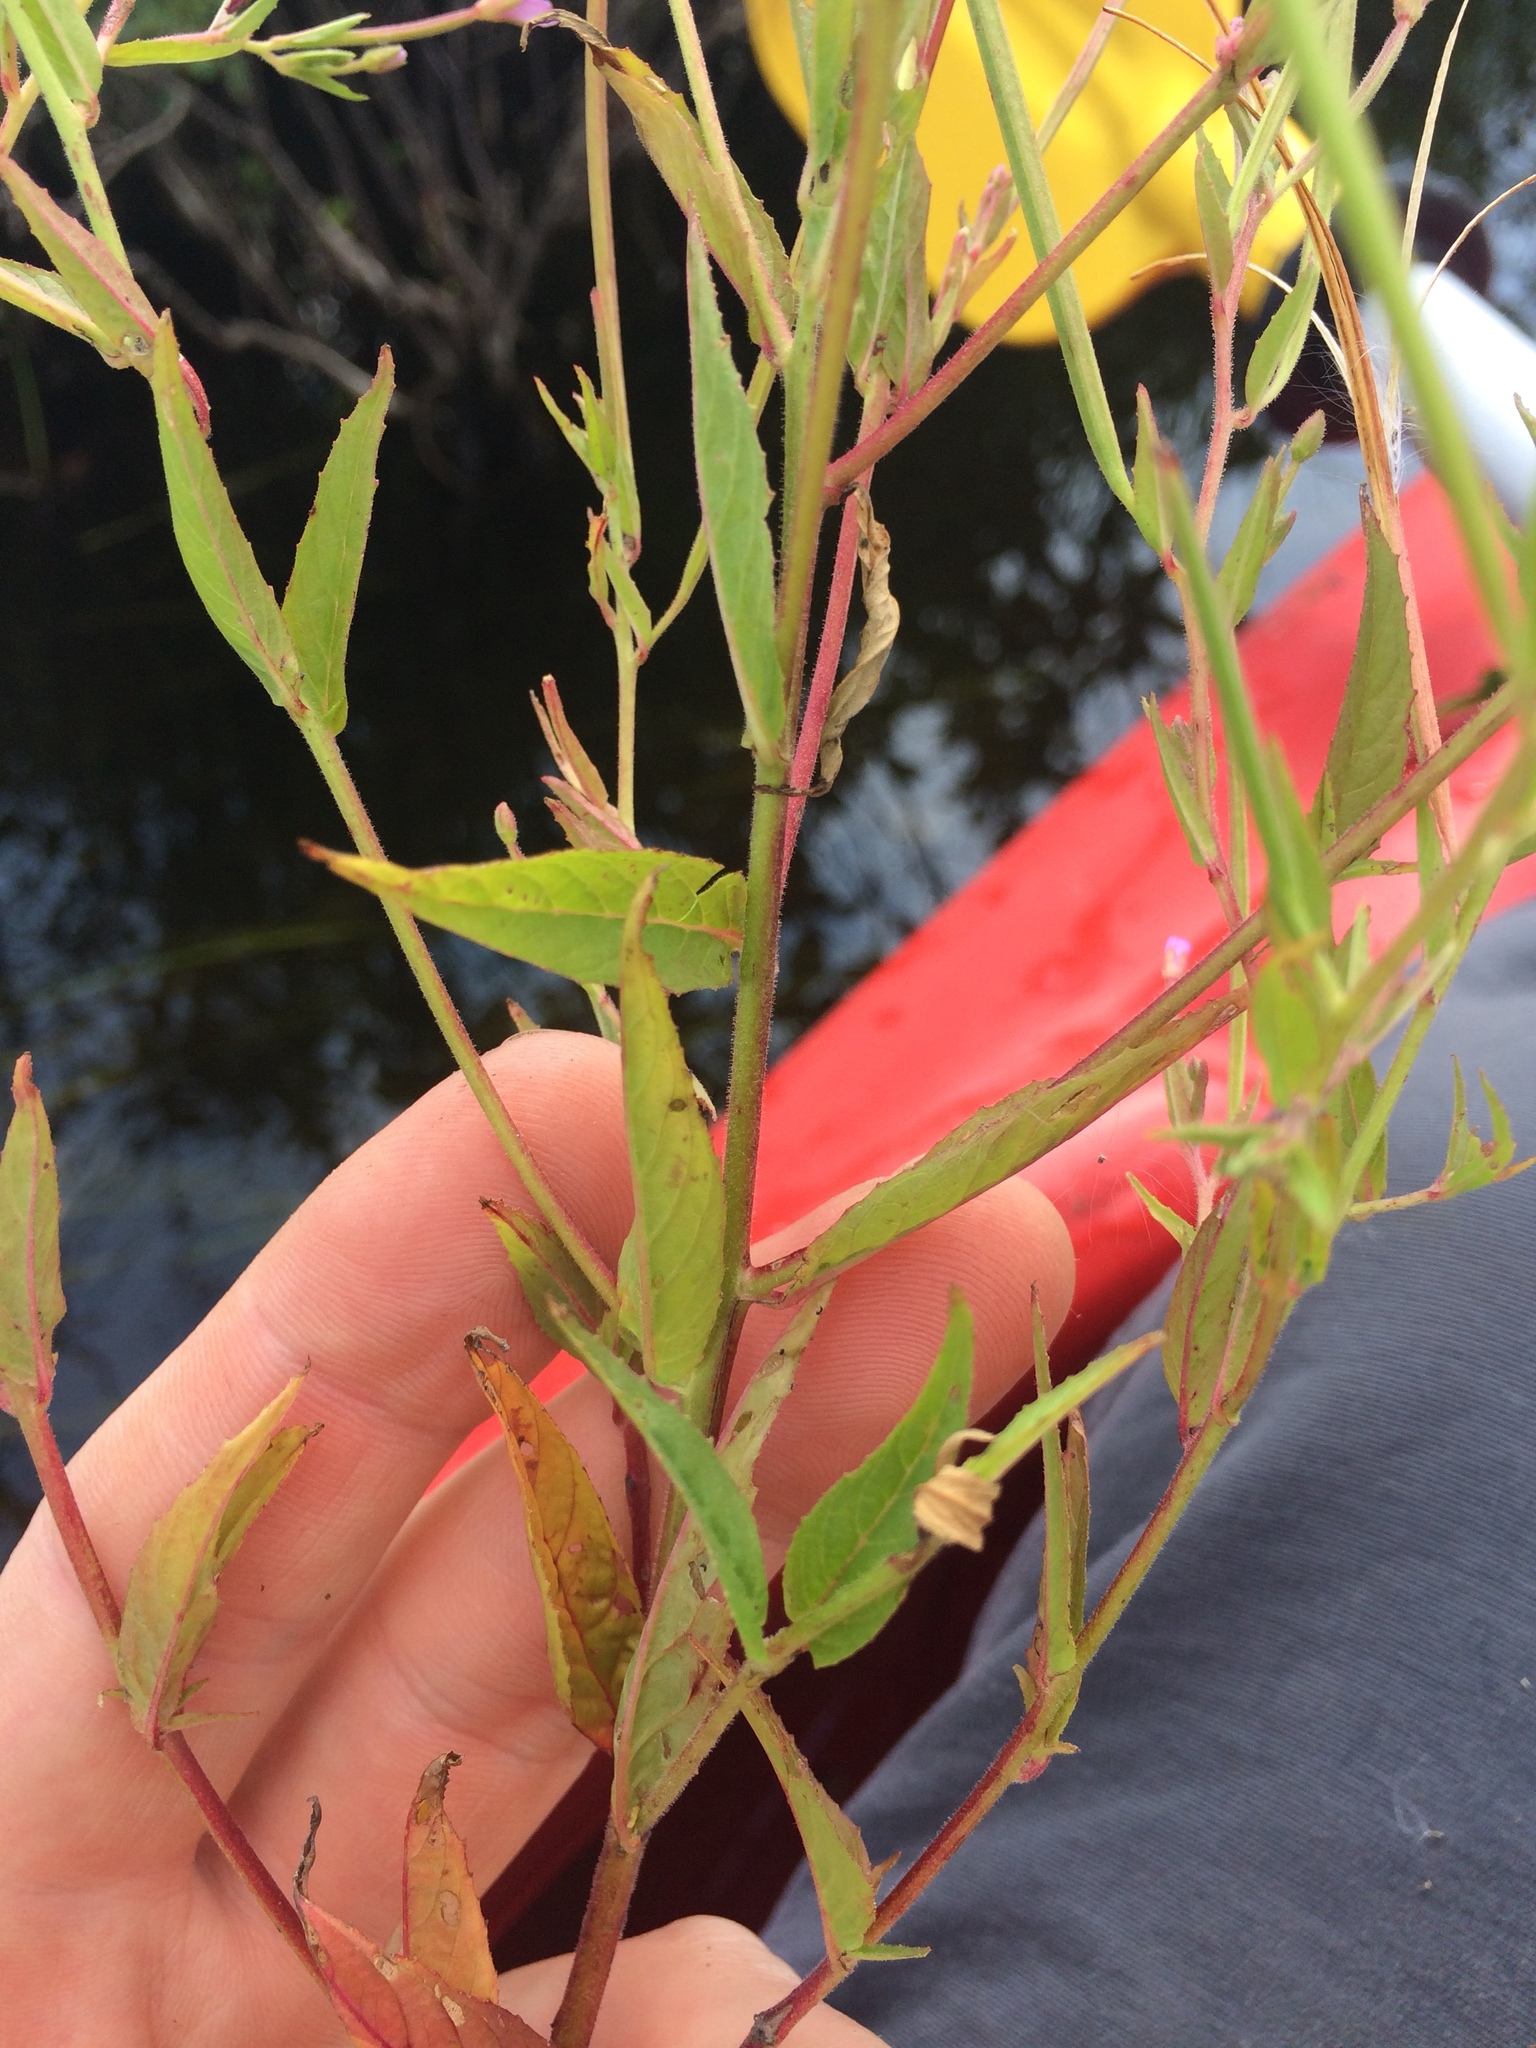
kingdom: Plantae
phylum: Tracheophyta
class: Magnoliopsida
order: Myrtales
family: Onagraceae
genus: Epilobium
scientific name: Epilobium ciliatum
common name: American willowherb
